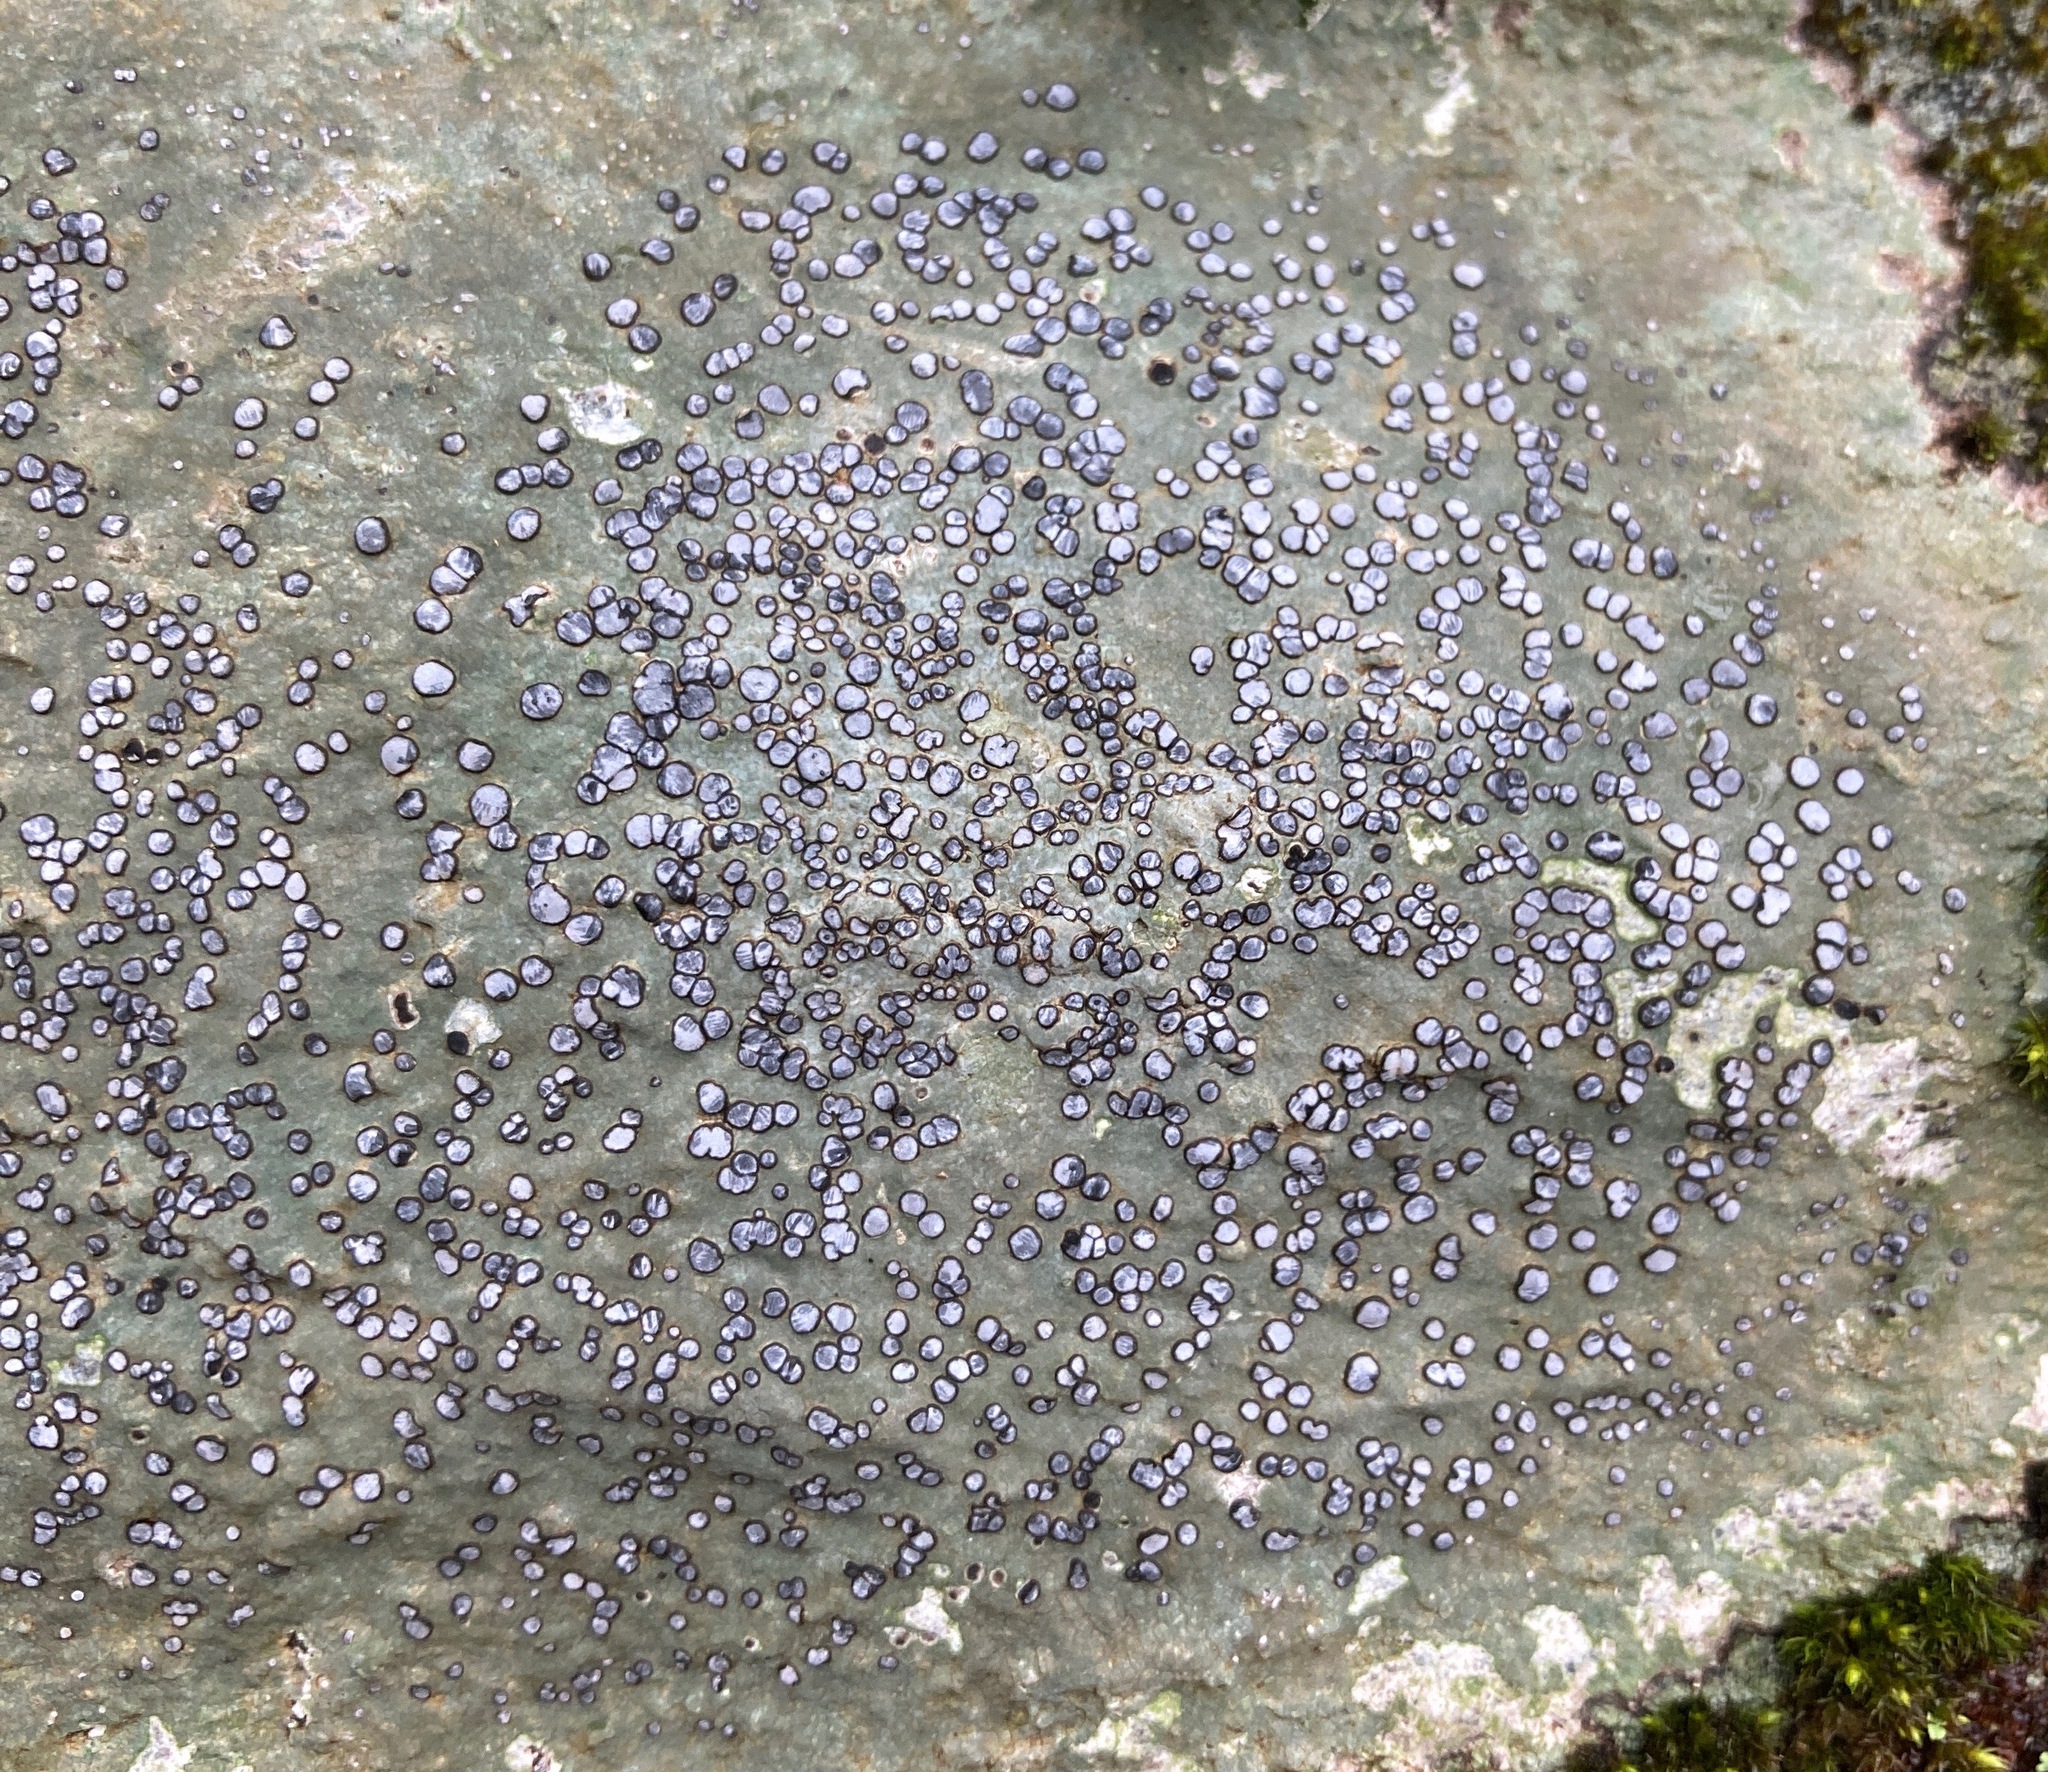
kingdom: Fungi
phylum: Ascomycota
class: Lecanoromycetes
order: Lecideales
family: Lecideaceae
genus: Porpidia
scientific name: Porpidia albocaerulescens
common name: Smokey-eyed boulder lichen
